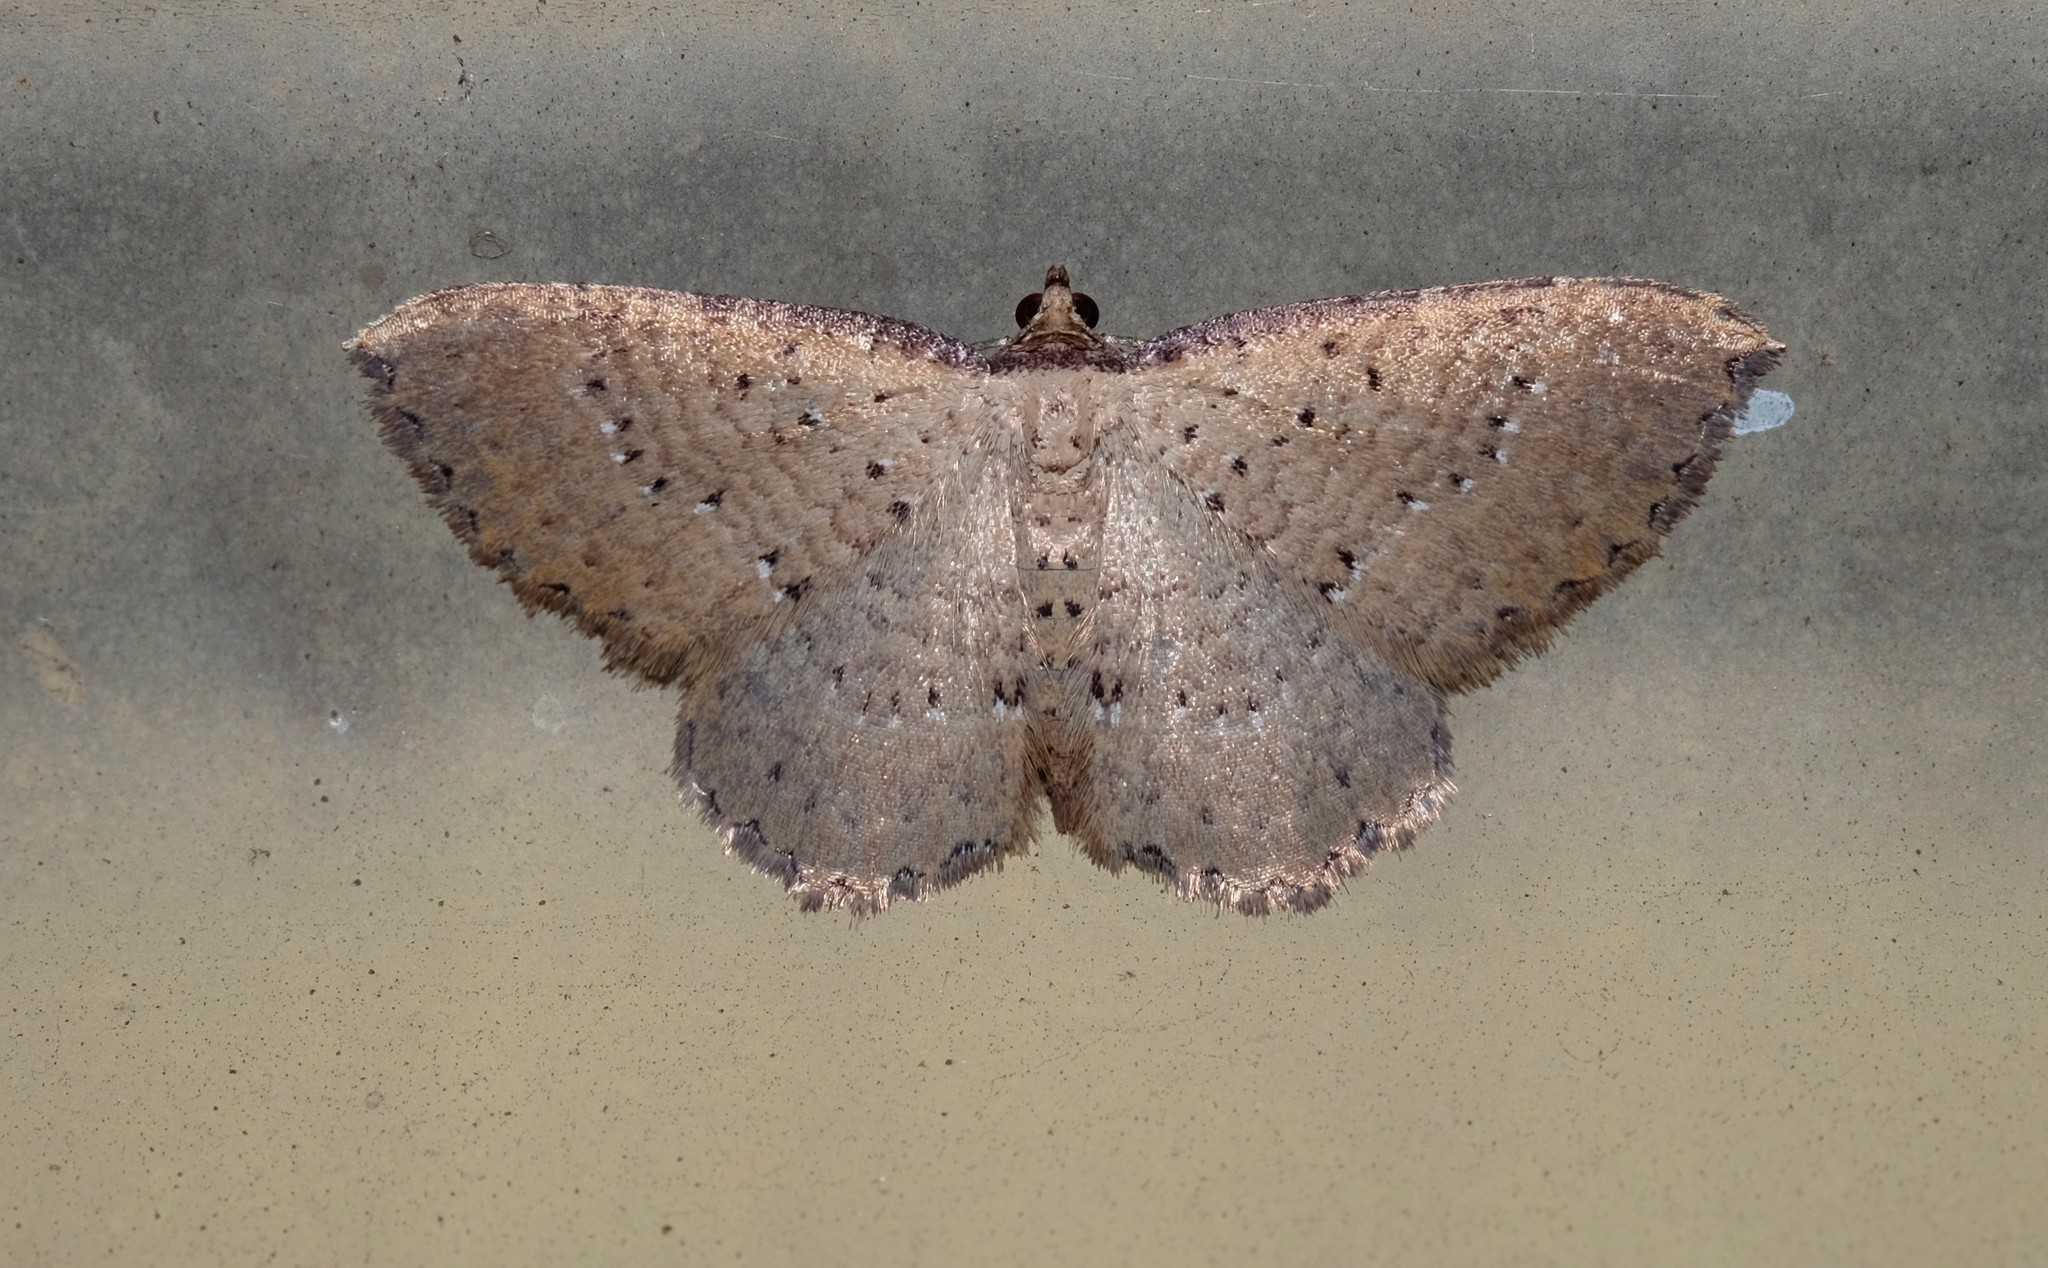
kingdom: Animalia
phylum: Arthropoda
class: Insecta
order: Lepidoptera
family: Geometridae
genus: Chrysolarentia
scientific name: Chrysolarentia microcyma
